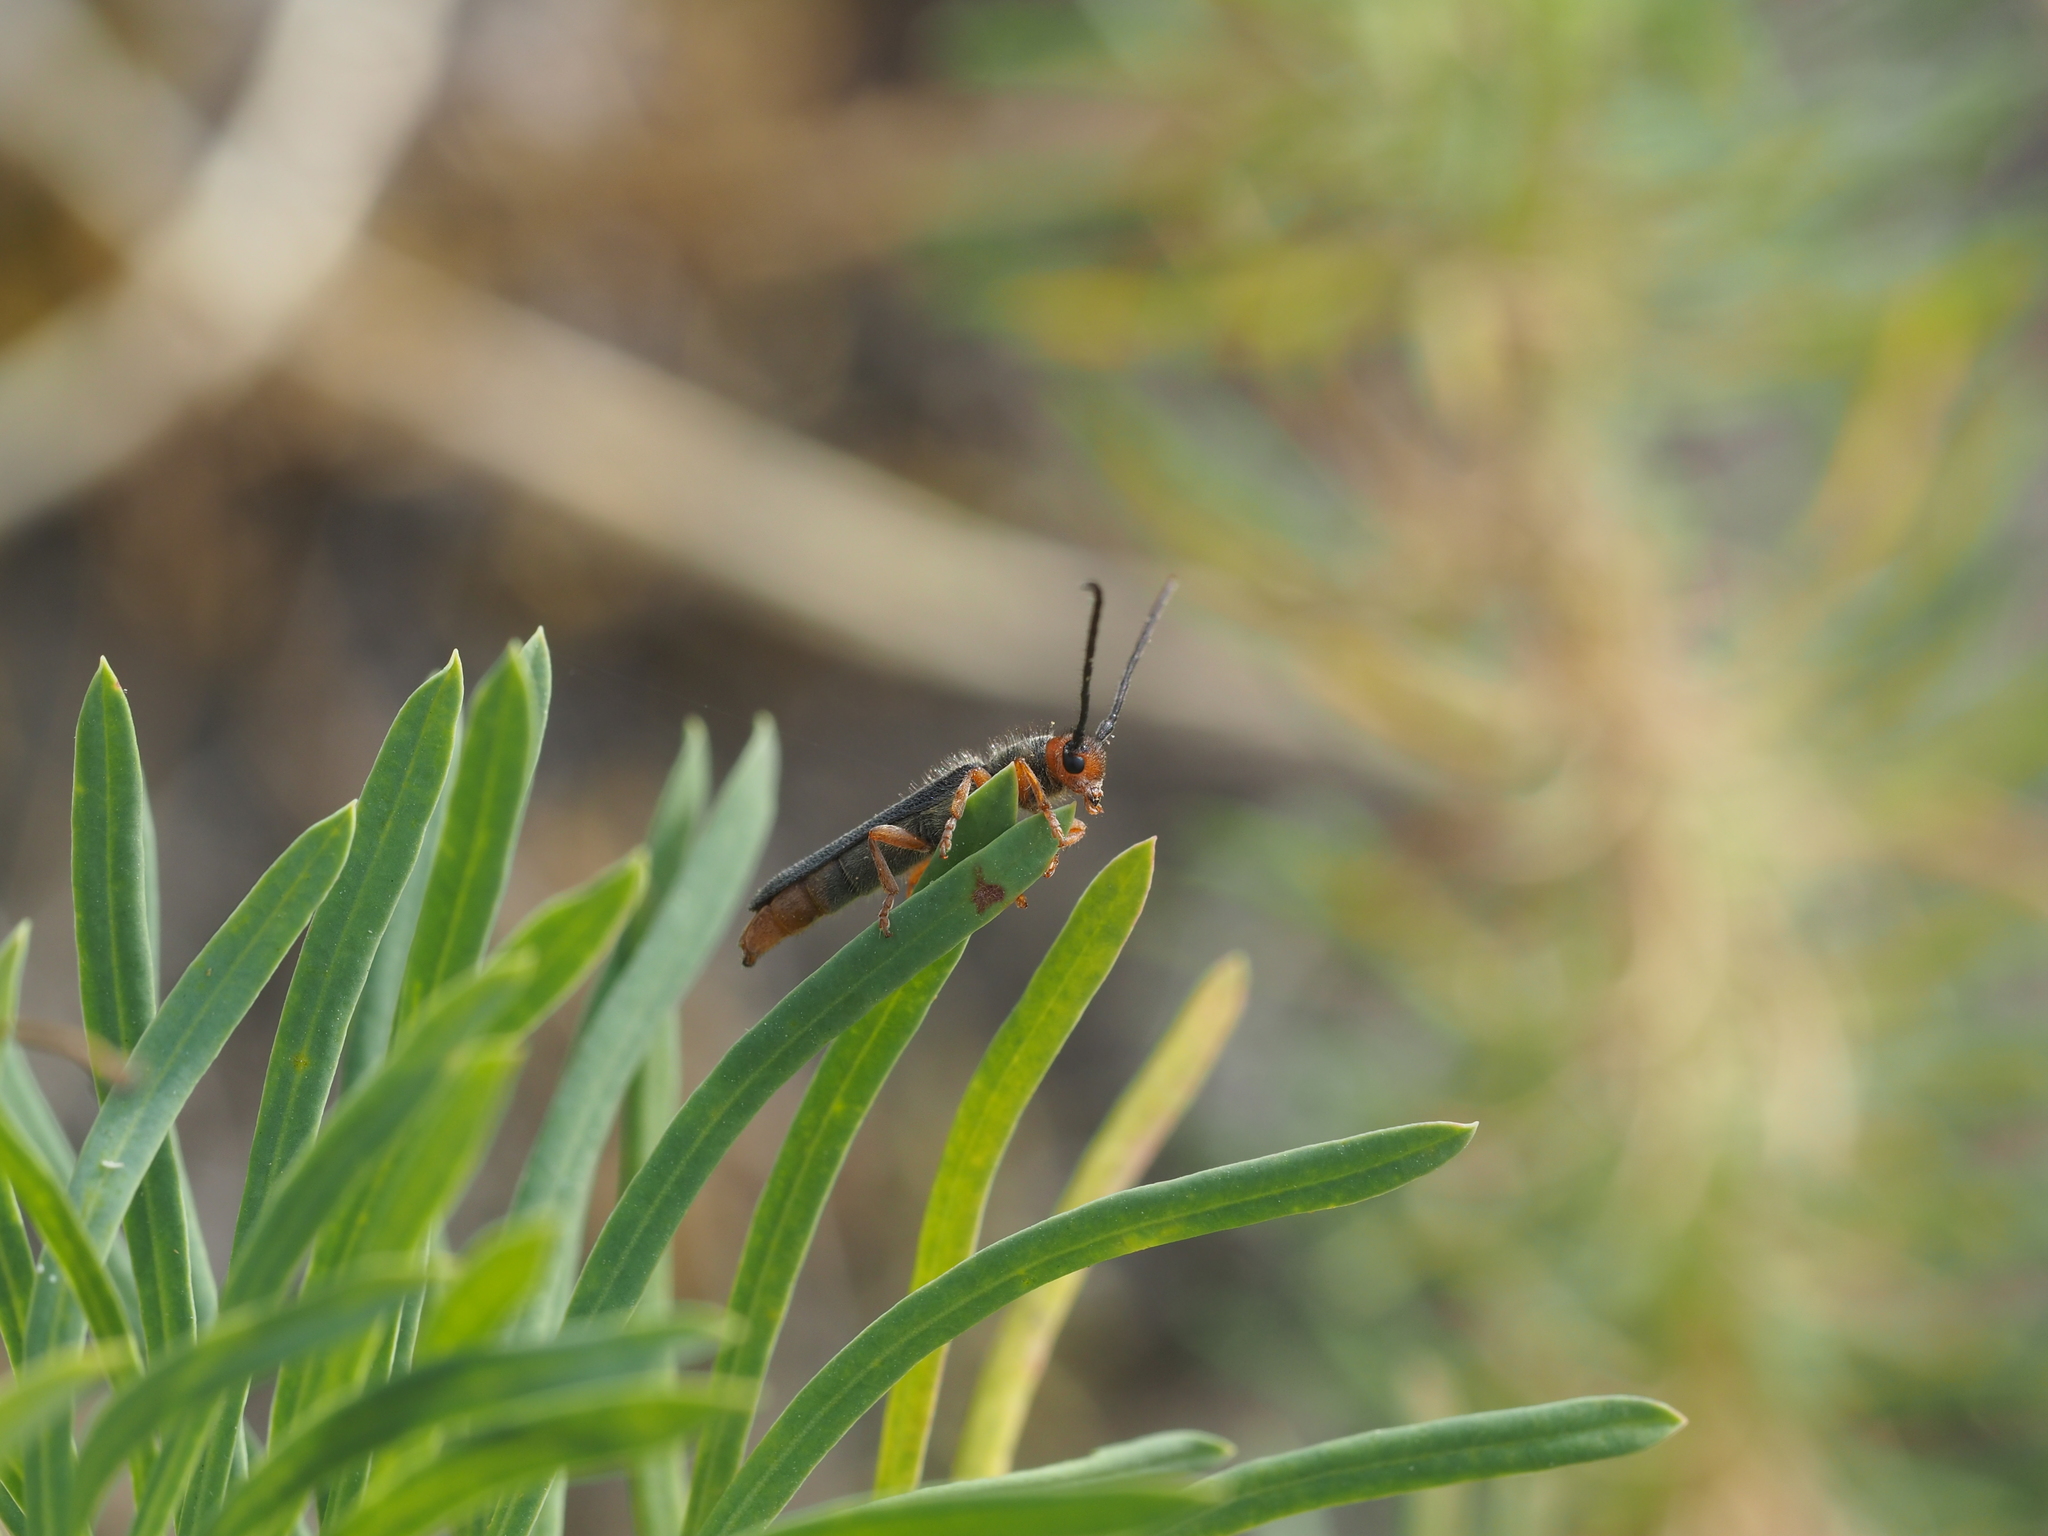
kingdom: Animalia
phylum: Arthropoda
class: Insecta
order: Coleoptera
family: Cerambycidae
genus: Oberea
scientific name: Oberea erythrocephala
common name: Leafy spurge stem boring beetle
